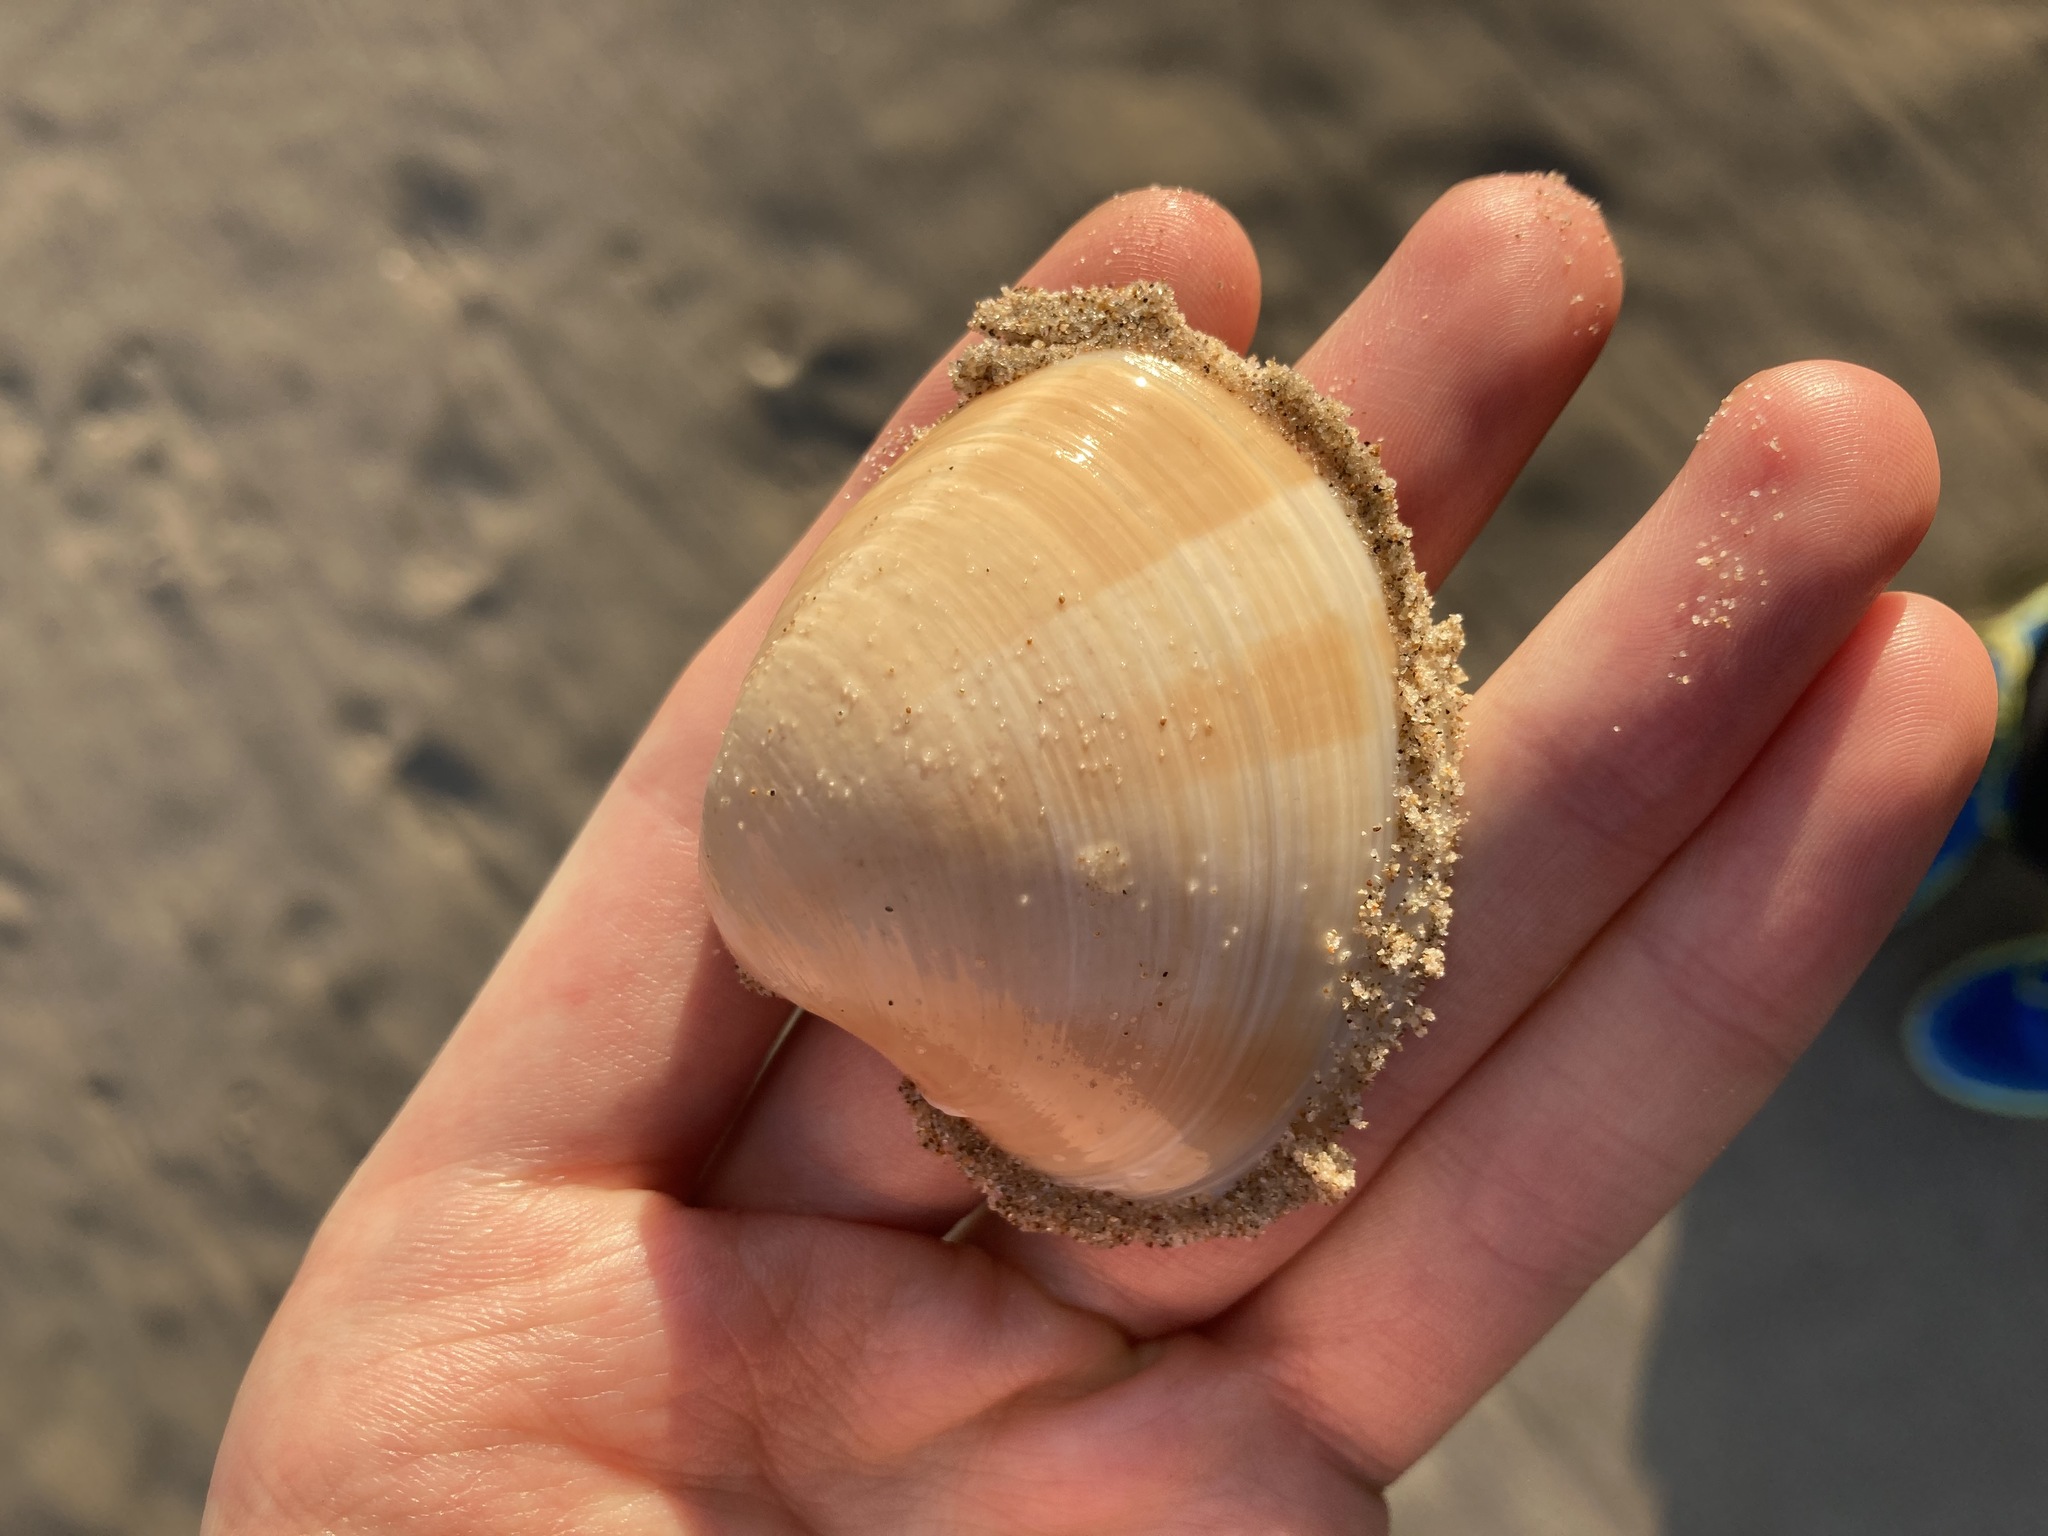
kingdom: Animalia
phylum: Mollusca
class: Bivalvia
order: Venerida
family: Veneridae
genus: Bassina
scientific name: Bassina pachyphylla
